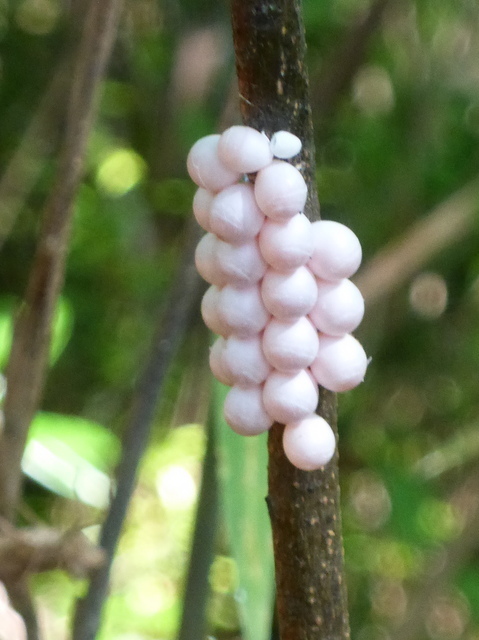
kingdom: Animalia
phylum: Mollusca
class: Gastropoda
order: Architaenioglossa
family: Ampullariidae
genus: Pomacea
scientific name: Pomacea paludosa
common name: Florida applesnail
